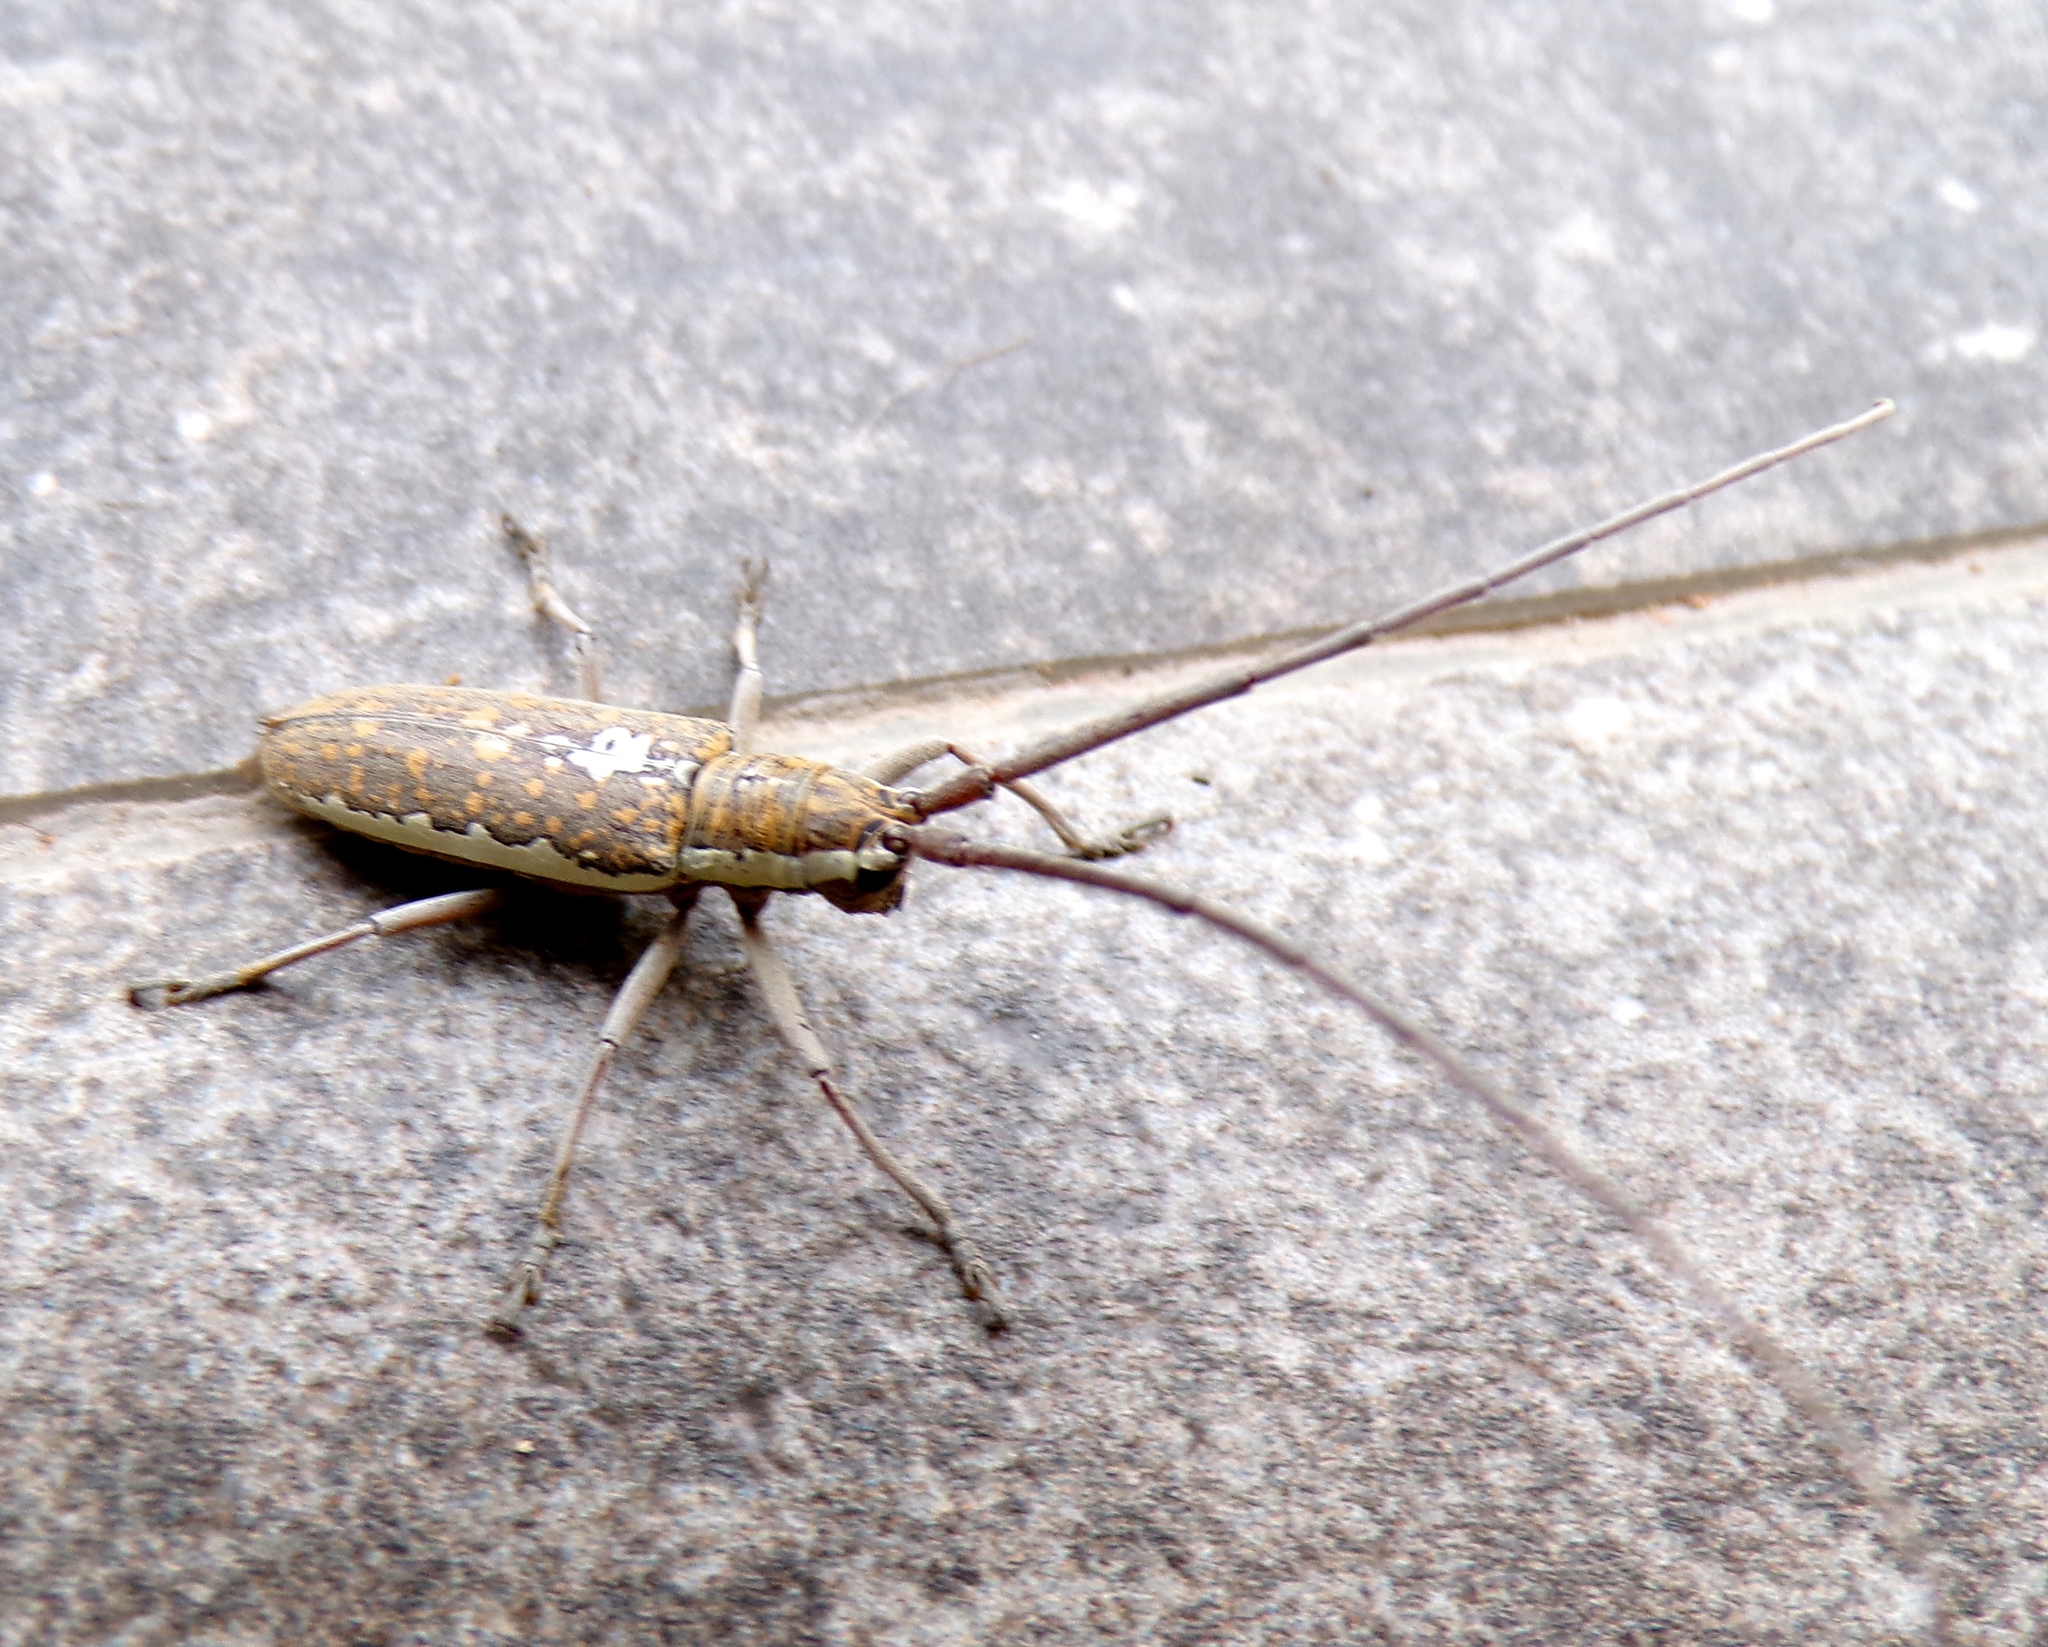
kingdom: Animalia
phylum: Arthropoda
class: Insecta
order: Coleoptera
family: Cerambycidae
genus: Neoptychodes
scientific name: Neoptychodes trilineatus
